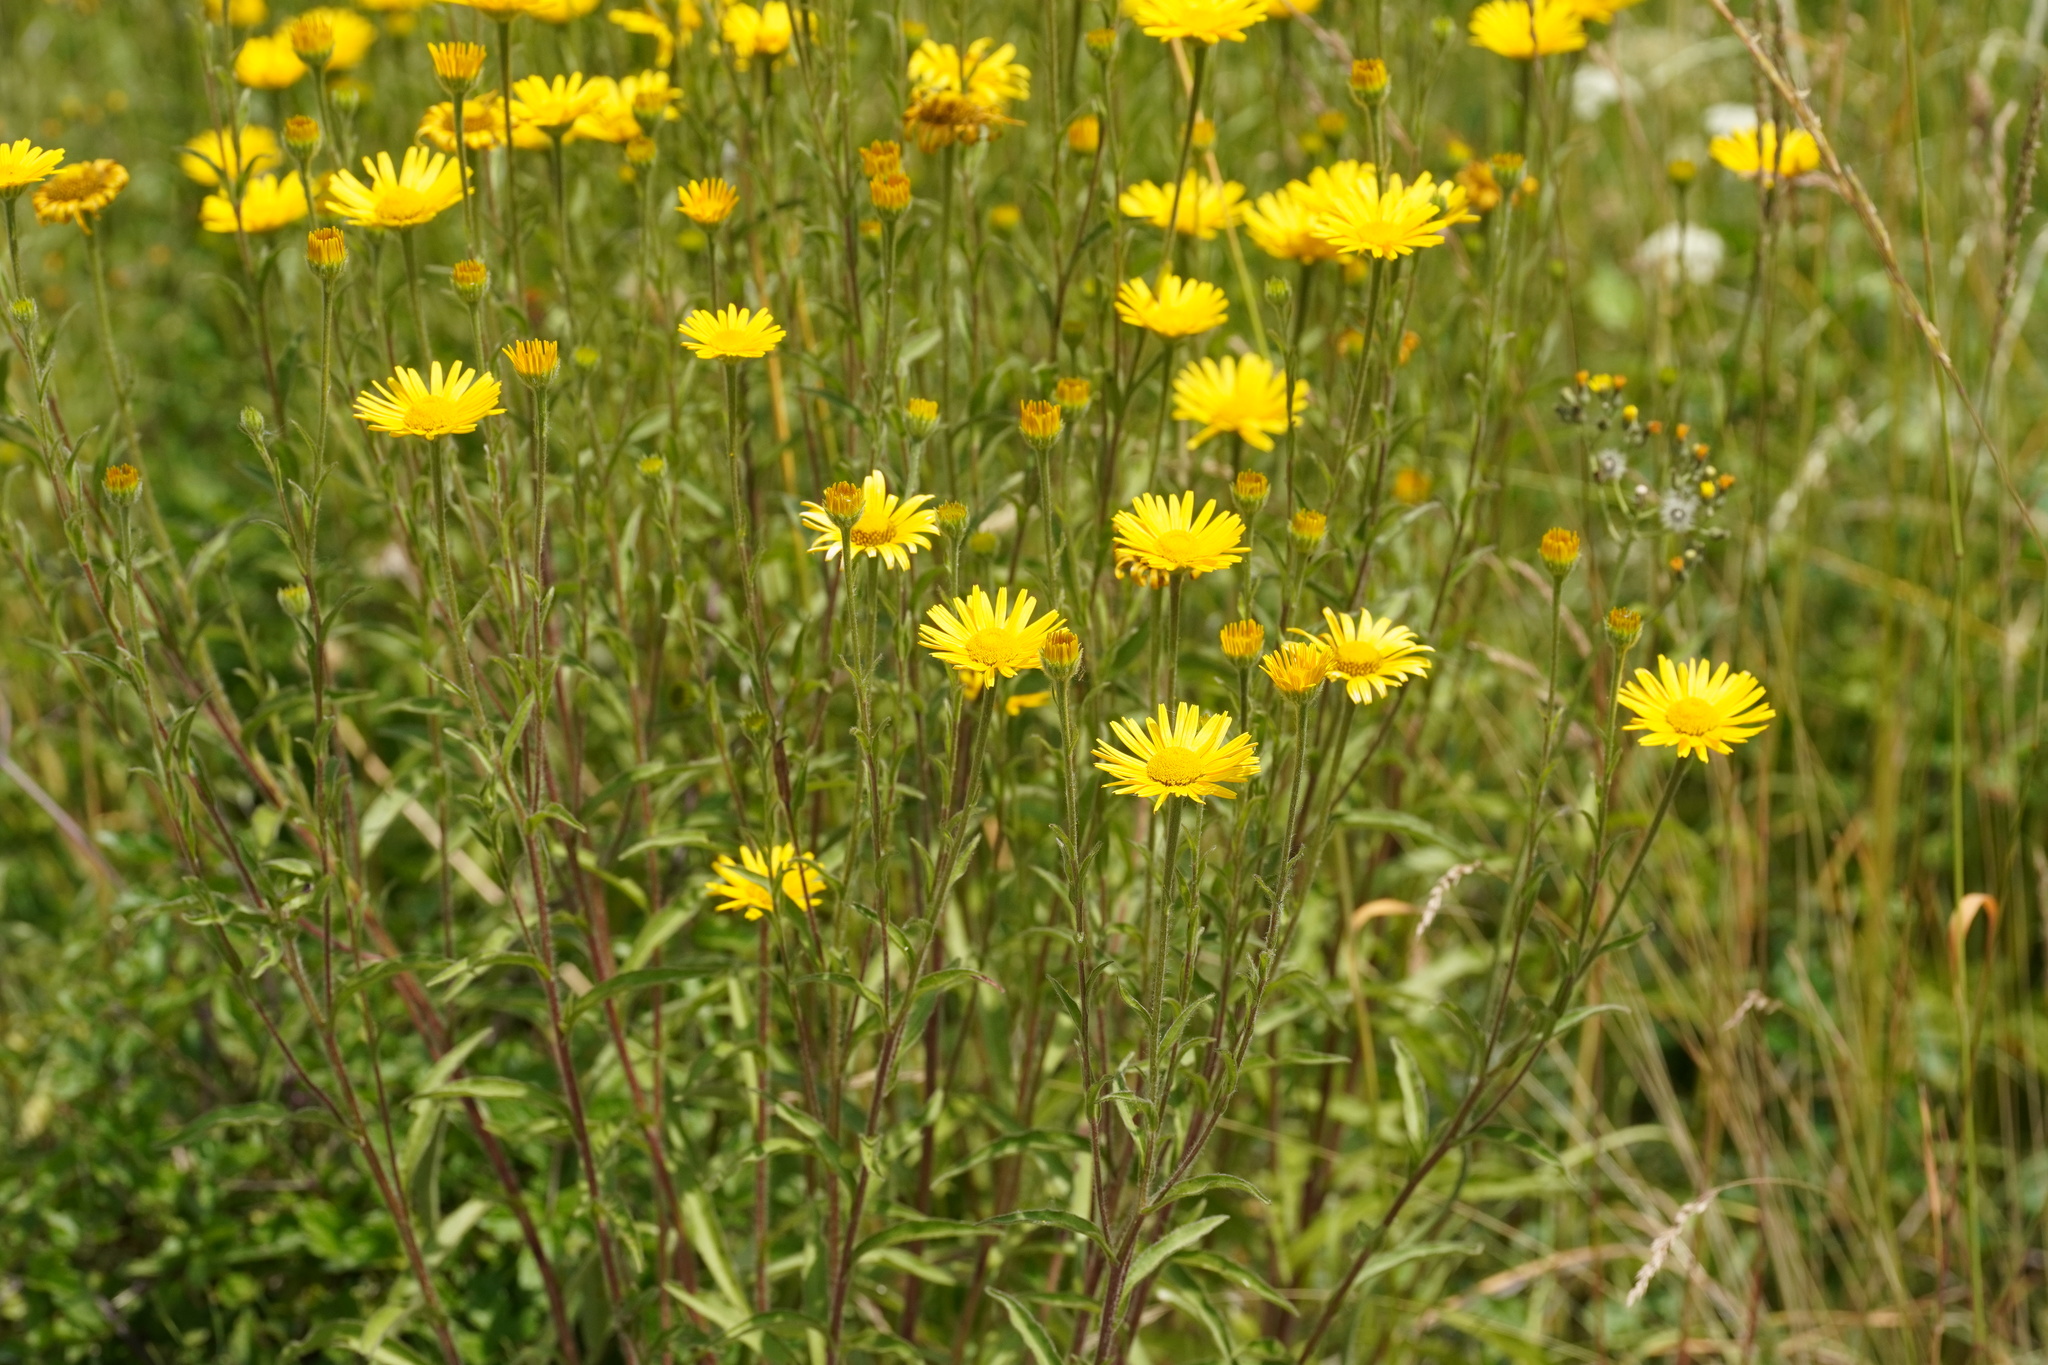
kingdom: Plantae
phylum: Tracheophyta
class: Magnoliopsida
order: Asterales
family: Asteraceae
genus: Buphthalmum
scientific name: Buphthalmum salicifolium
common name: Willow-leaved yellow-oxeye
